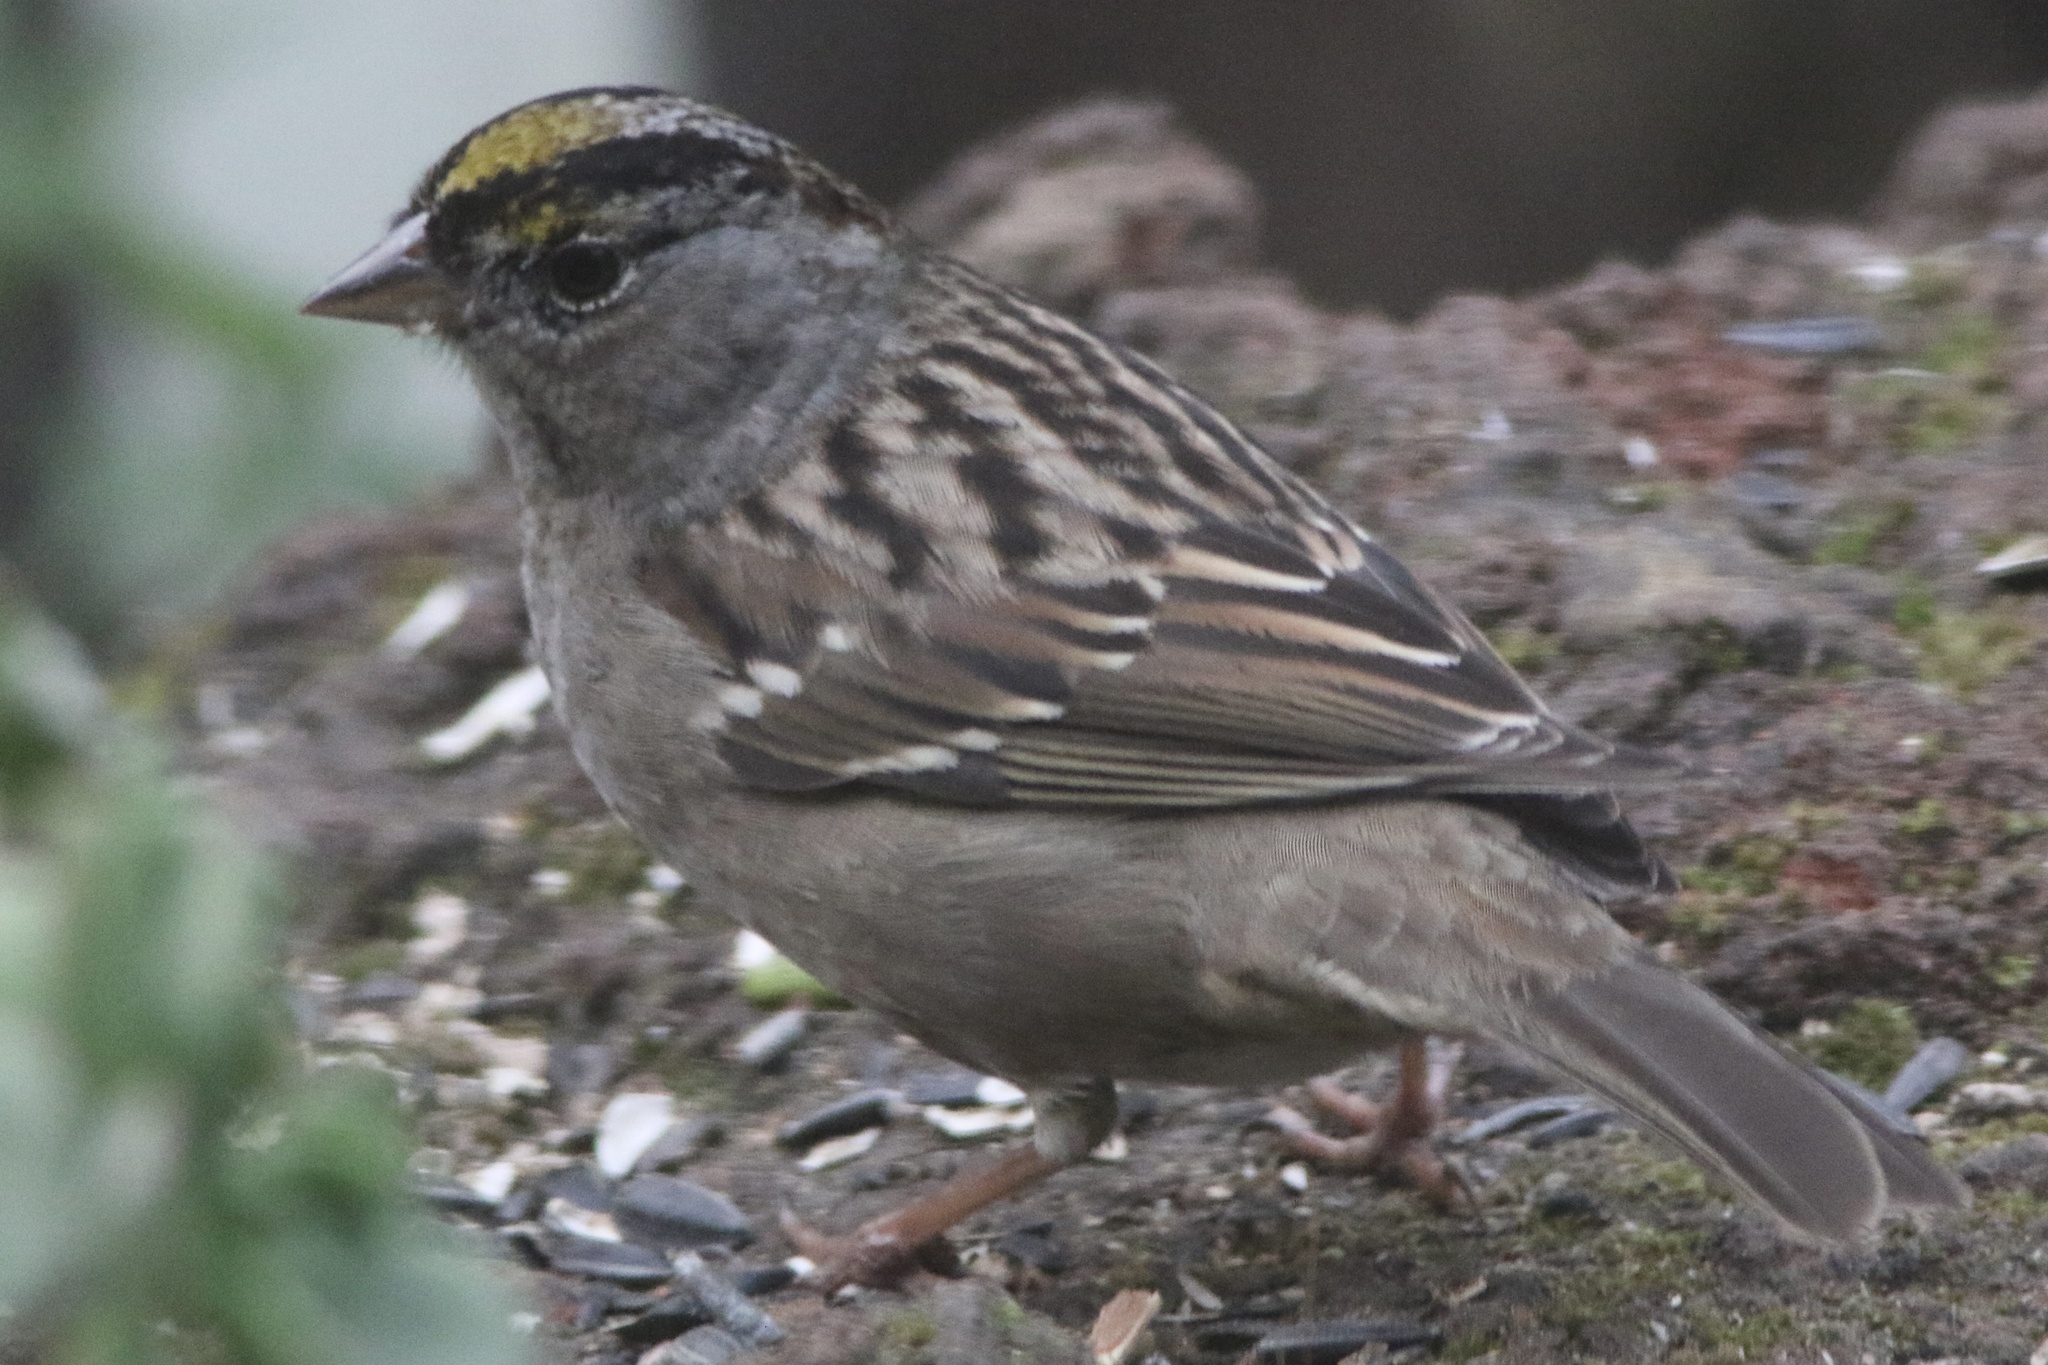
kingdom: Animalia
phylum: Chordata
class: Aves
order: Passeriformes
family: Passerellidae
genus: Zonotrichia
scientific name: Zonotrichia atricapilla
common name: Golden-crowned sparrow
